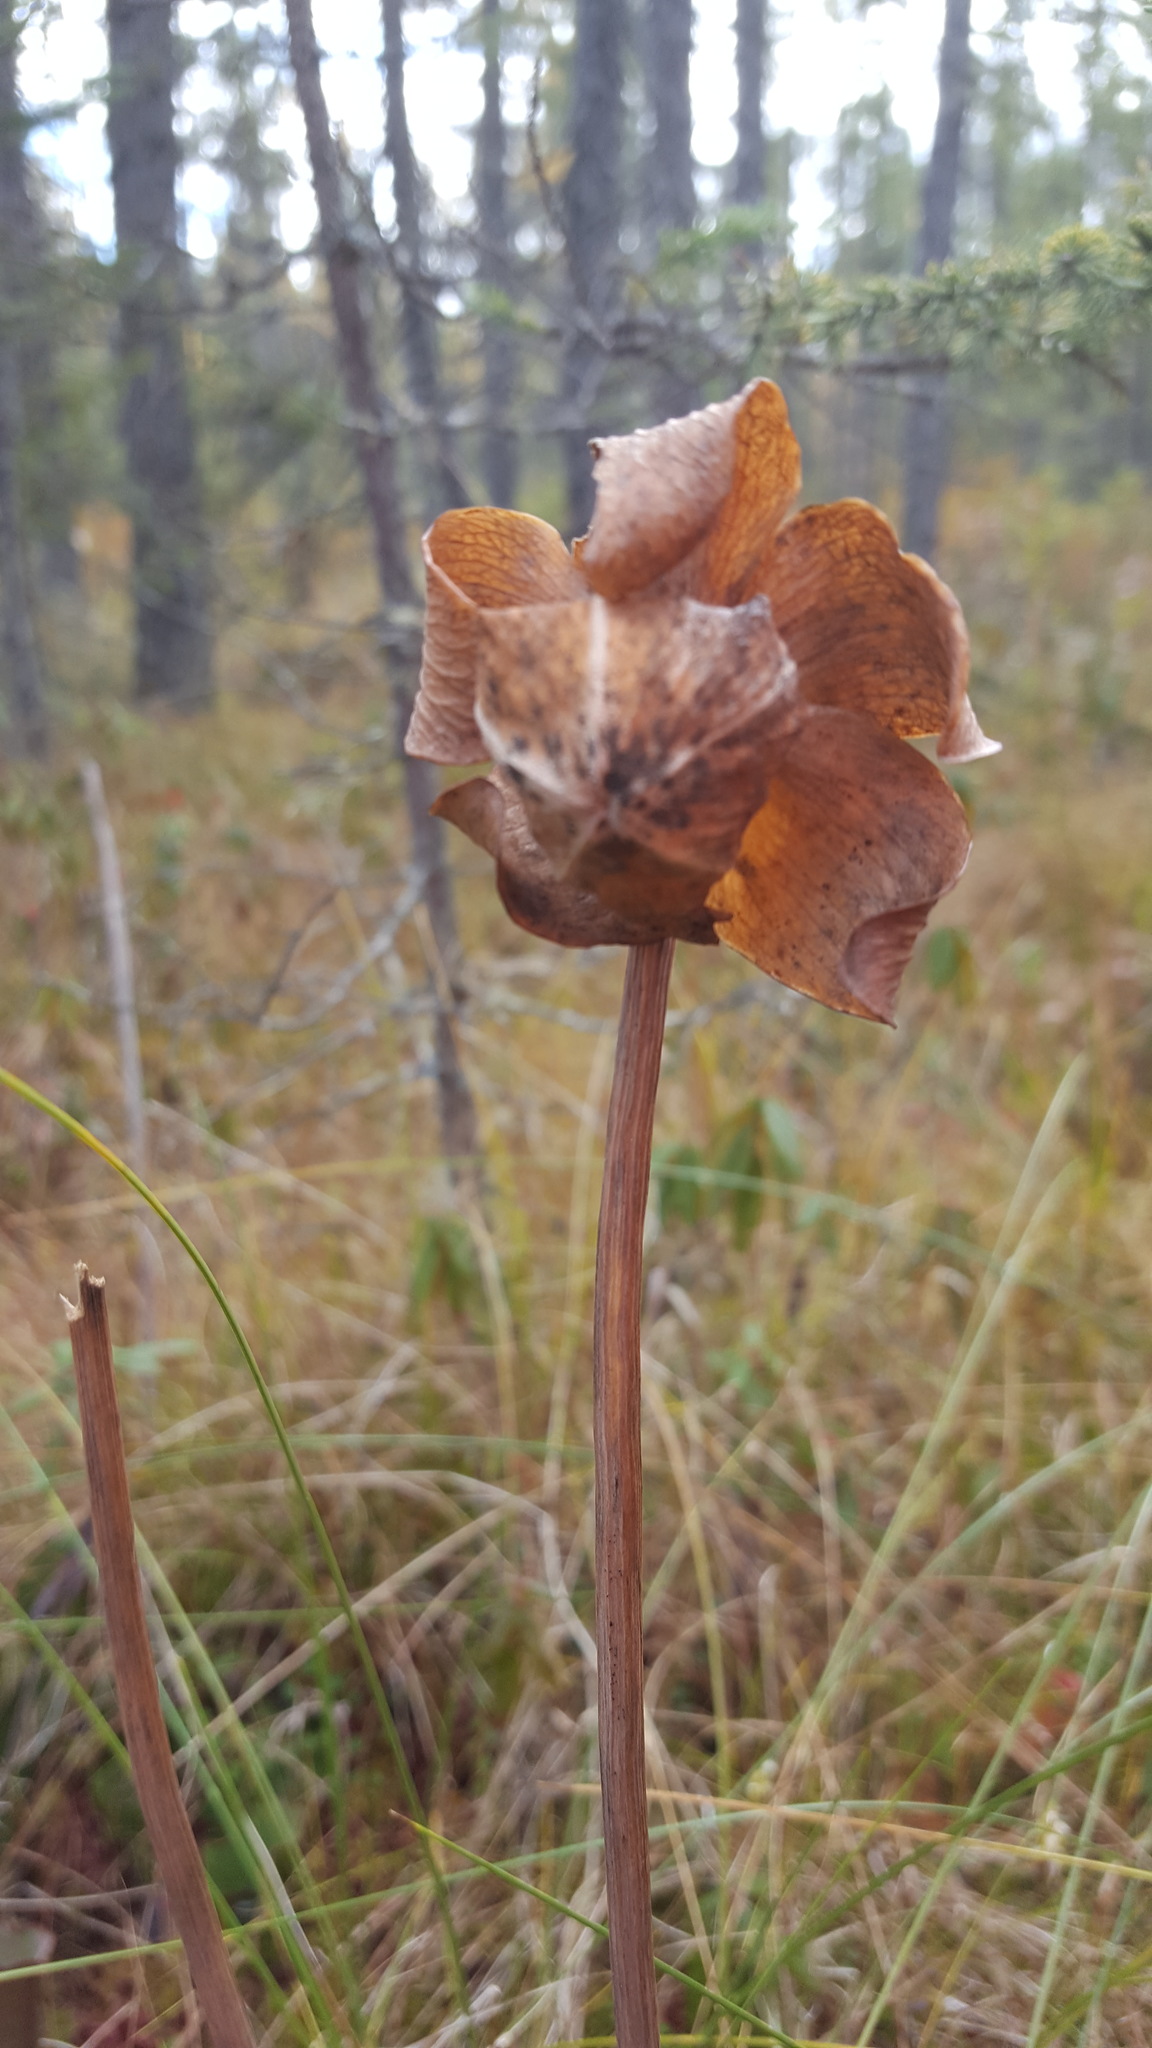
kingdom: Plantae
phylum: Tracheophyta
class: Magnoliopsida
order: Ericales
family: Sarraceniaceae
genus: Sarracenia
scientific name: Sarracenia purpurea
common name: Pitcherplant
